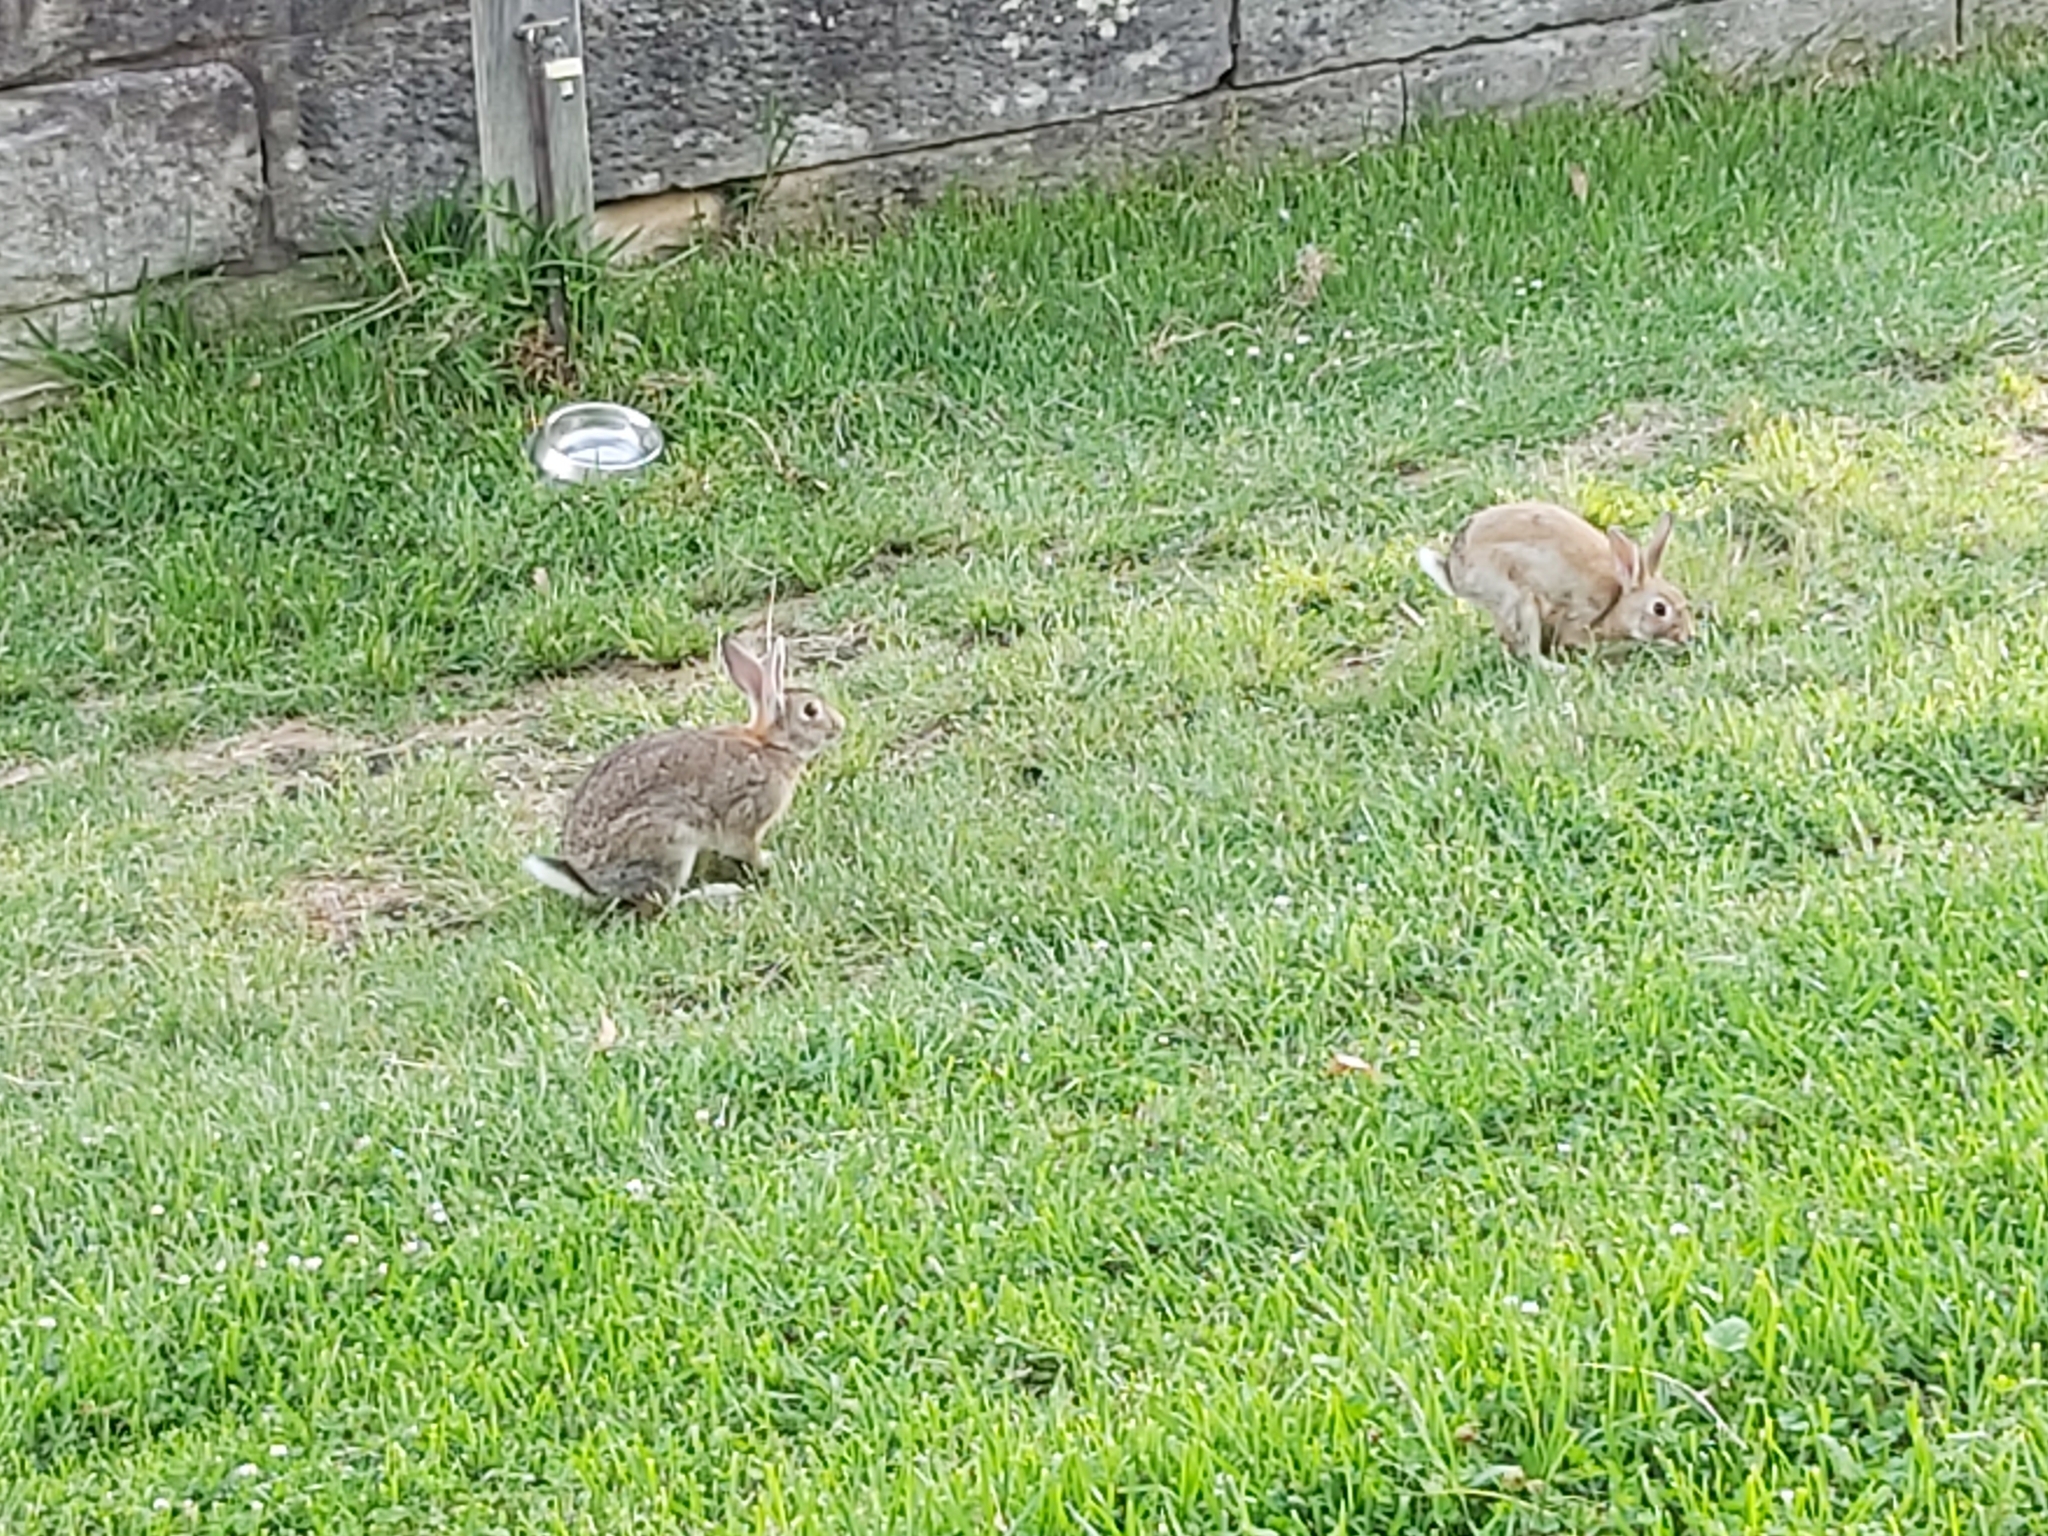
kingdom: Animalia
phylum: Chordata
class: Mammalia
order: Lagomorpha
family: Leporidae
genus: Oryctolagus
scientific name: Oryctolagus cuniculus
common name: European rabbit
